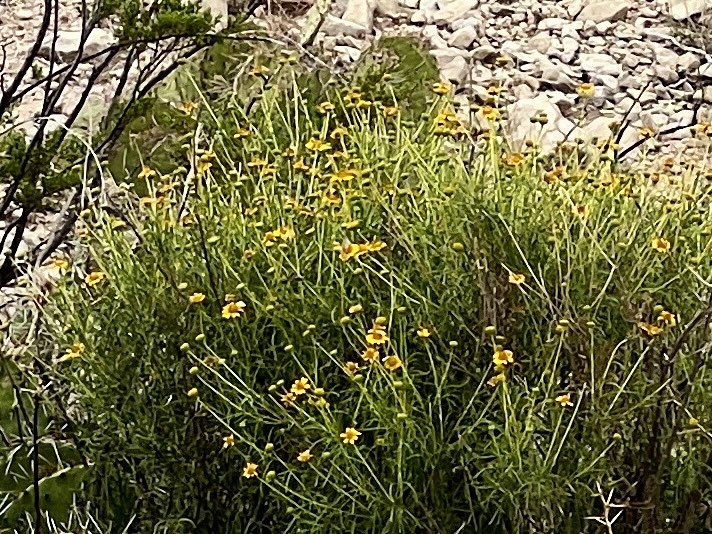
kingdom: Plantae
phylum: Tracheophyta
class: Magnoliopsida
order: Asterales
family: Asteraceae
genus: Sidneya
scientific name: Sidneya tenuifolia
